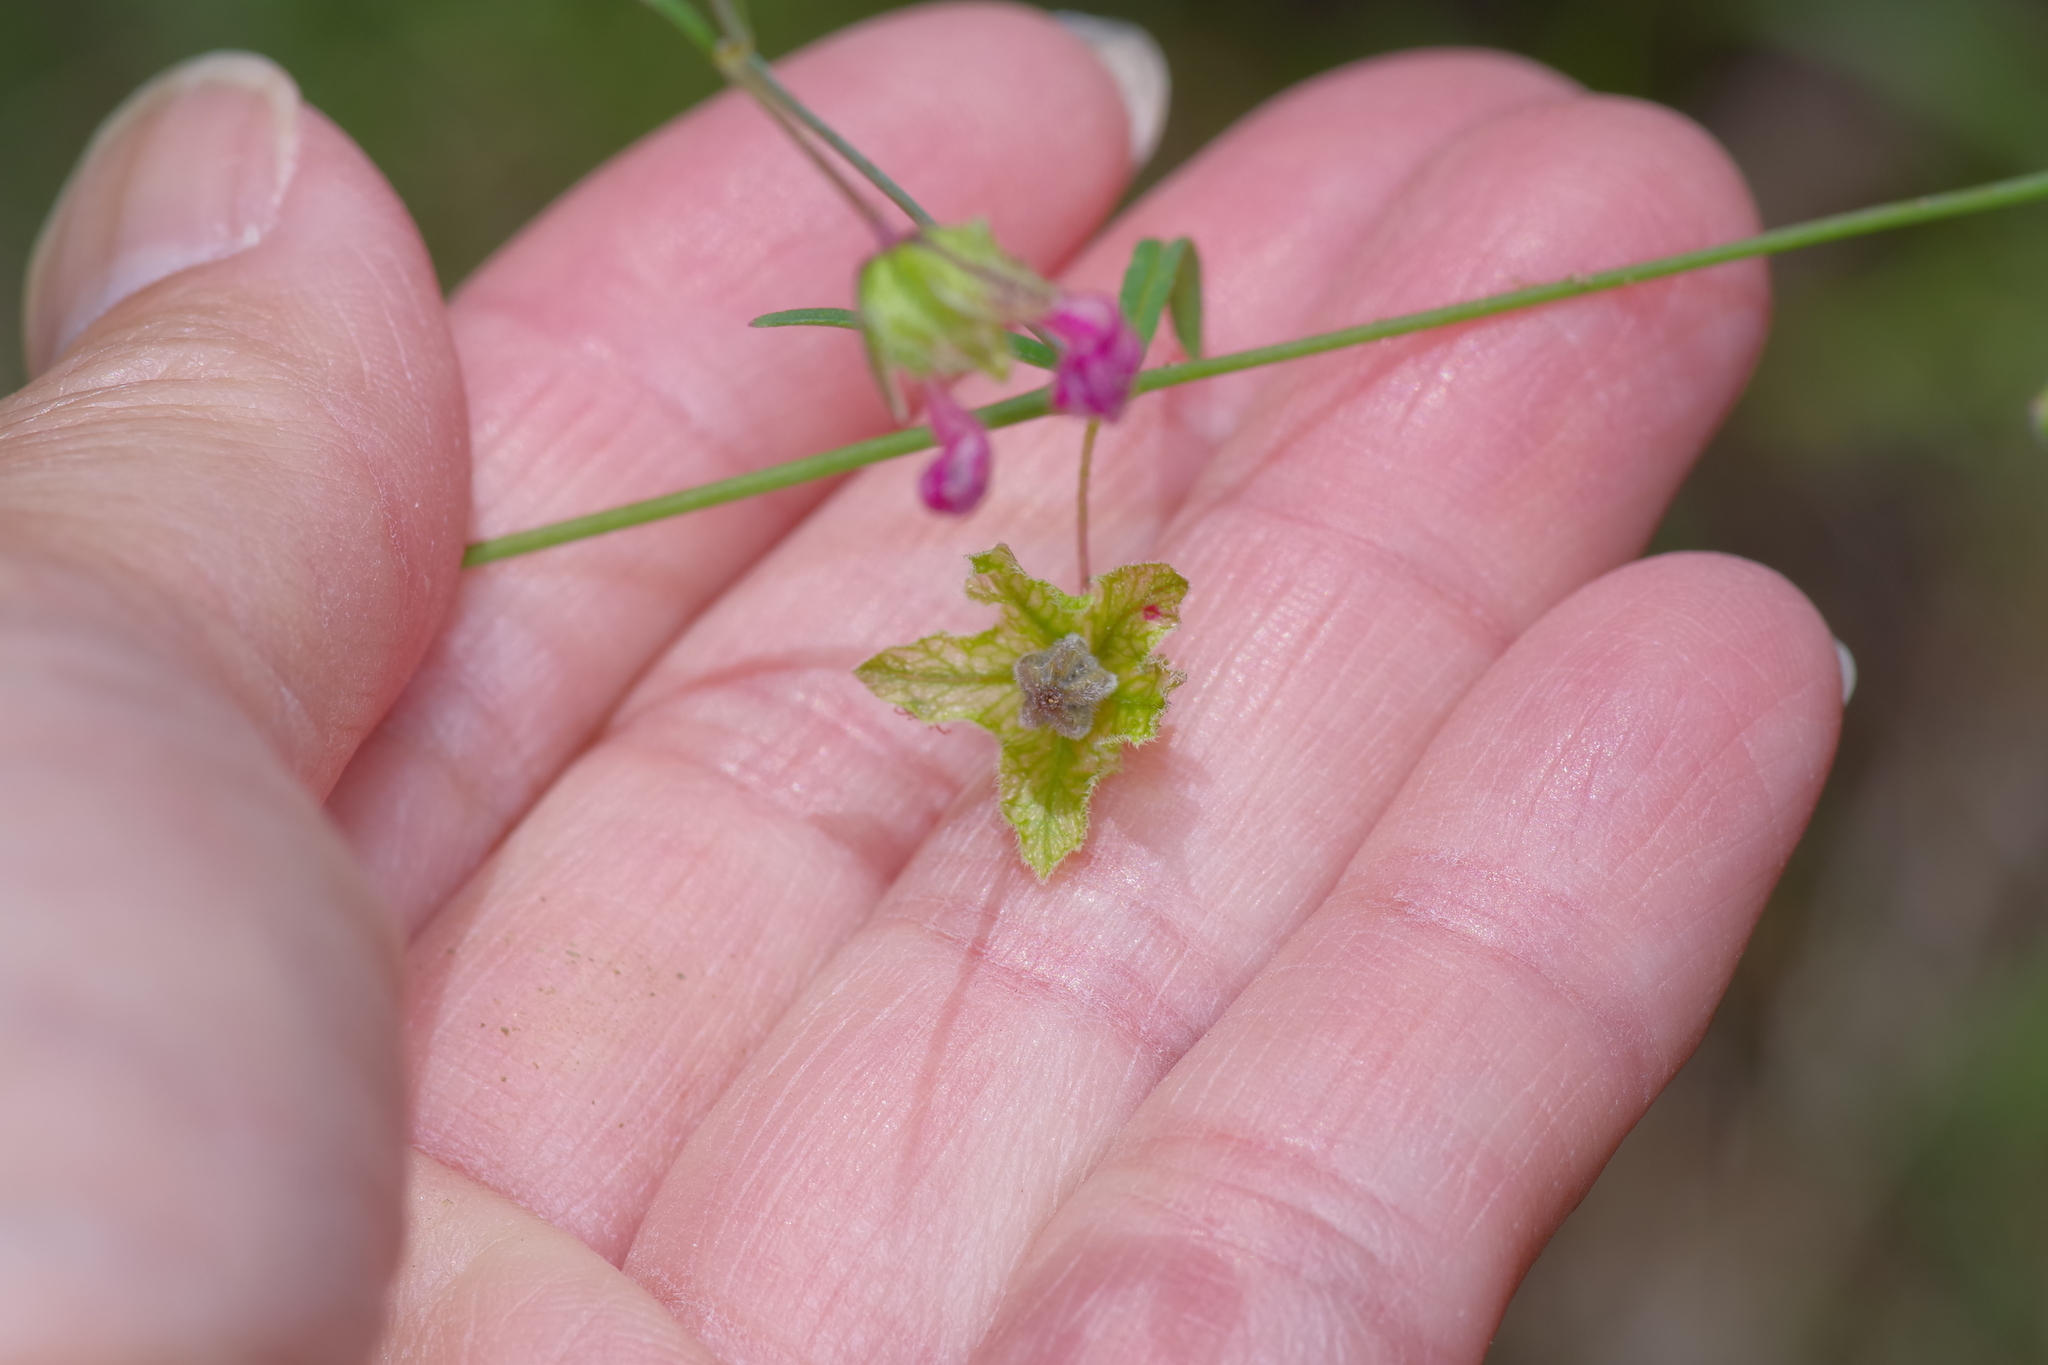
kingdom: Plantae
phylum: Tracheophyta
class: Magnoliopsida
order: Caryophyllales
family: Nyctaginaceae
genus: Mirabilis
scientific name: Mirabilis coccinea
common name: Scarlet four-o'clock
